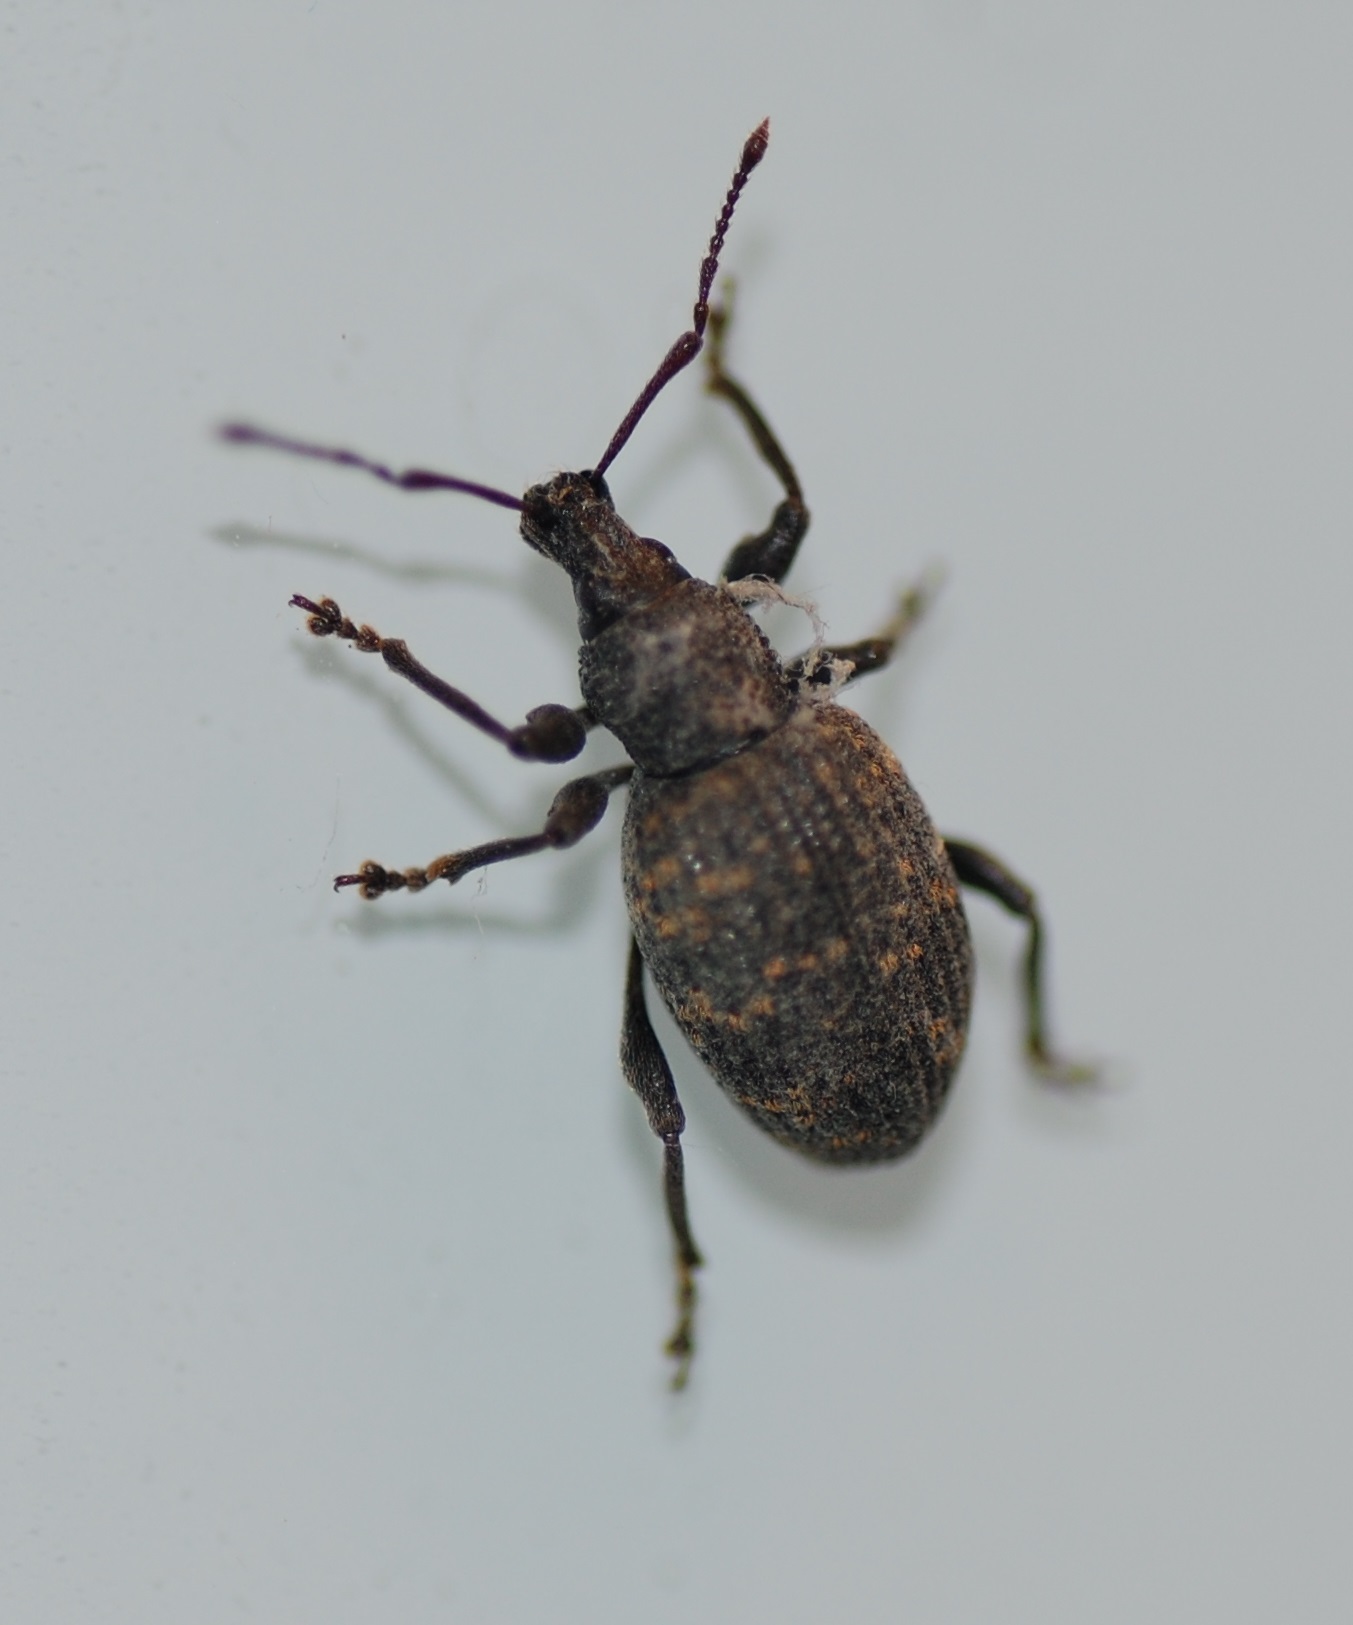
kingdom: Animalia
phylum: Arthropoda
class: Insecta
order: Coleoptera
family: Curculionidae
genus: Otiorhynchus
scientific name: Otiorhynchus sulcatus
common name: Black vine weevil
